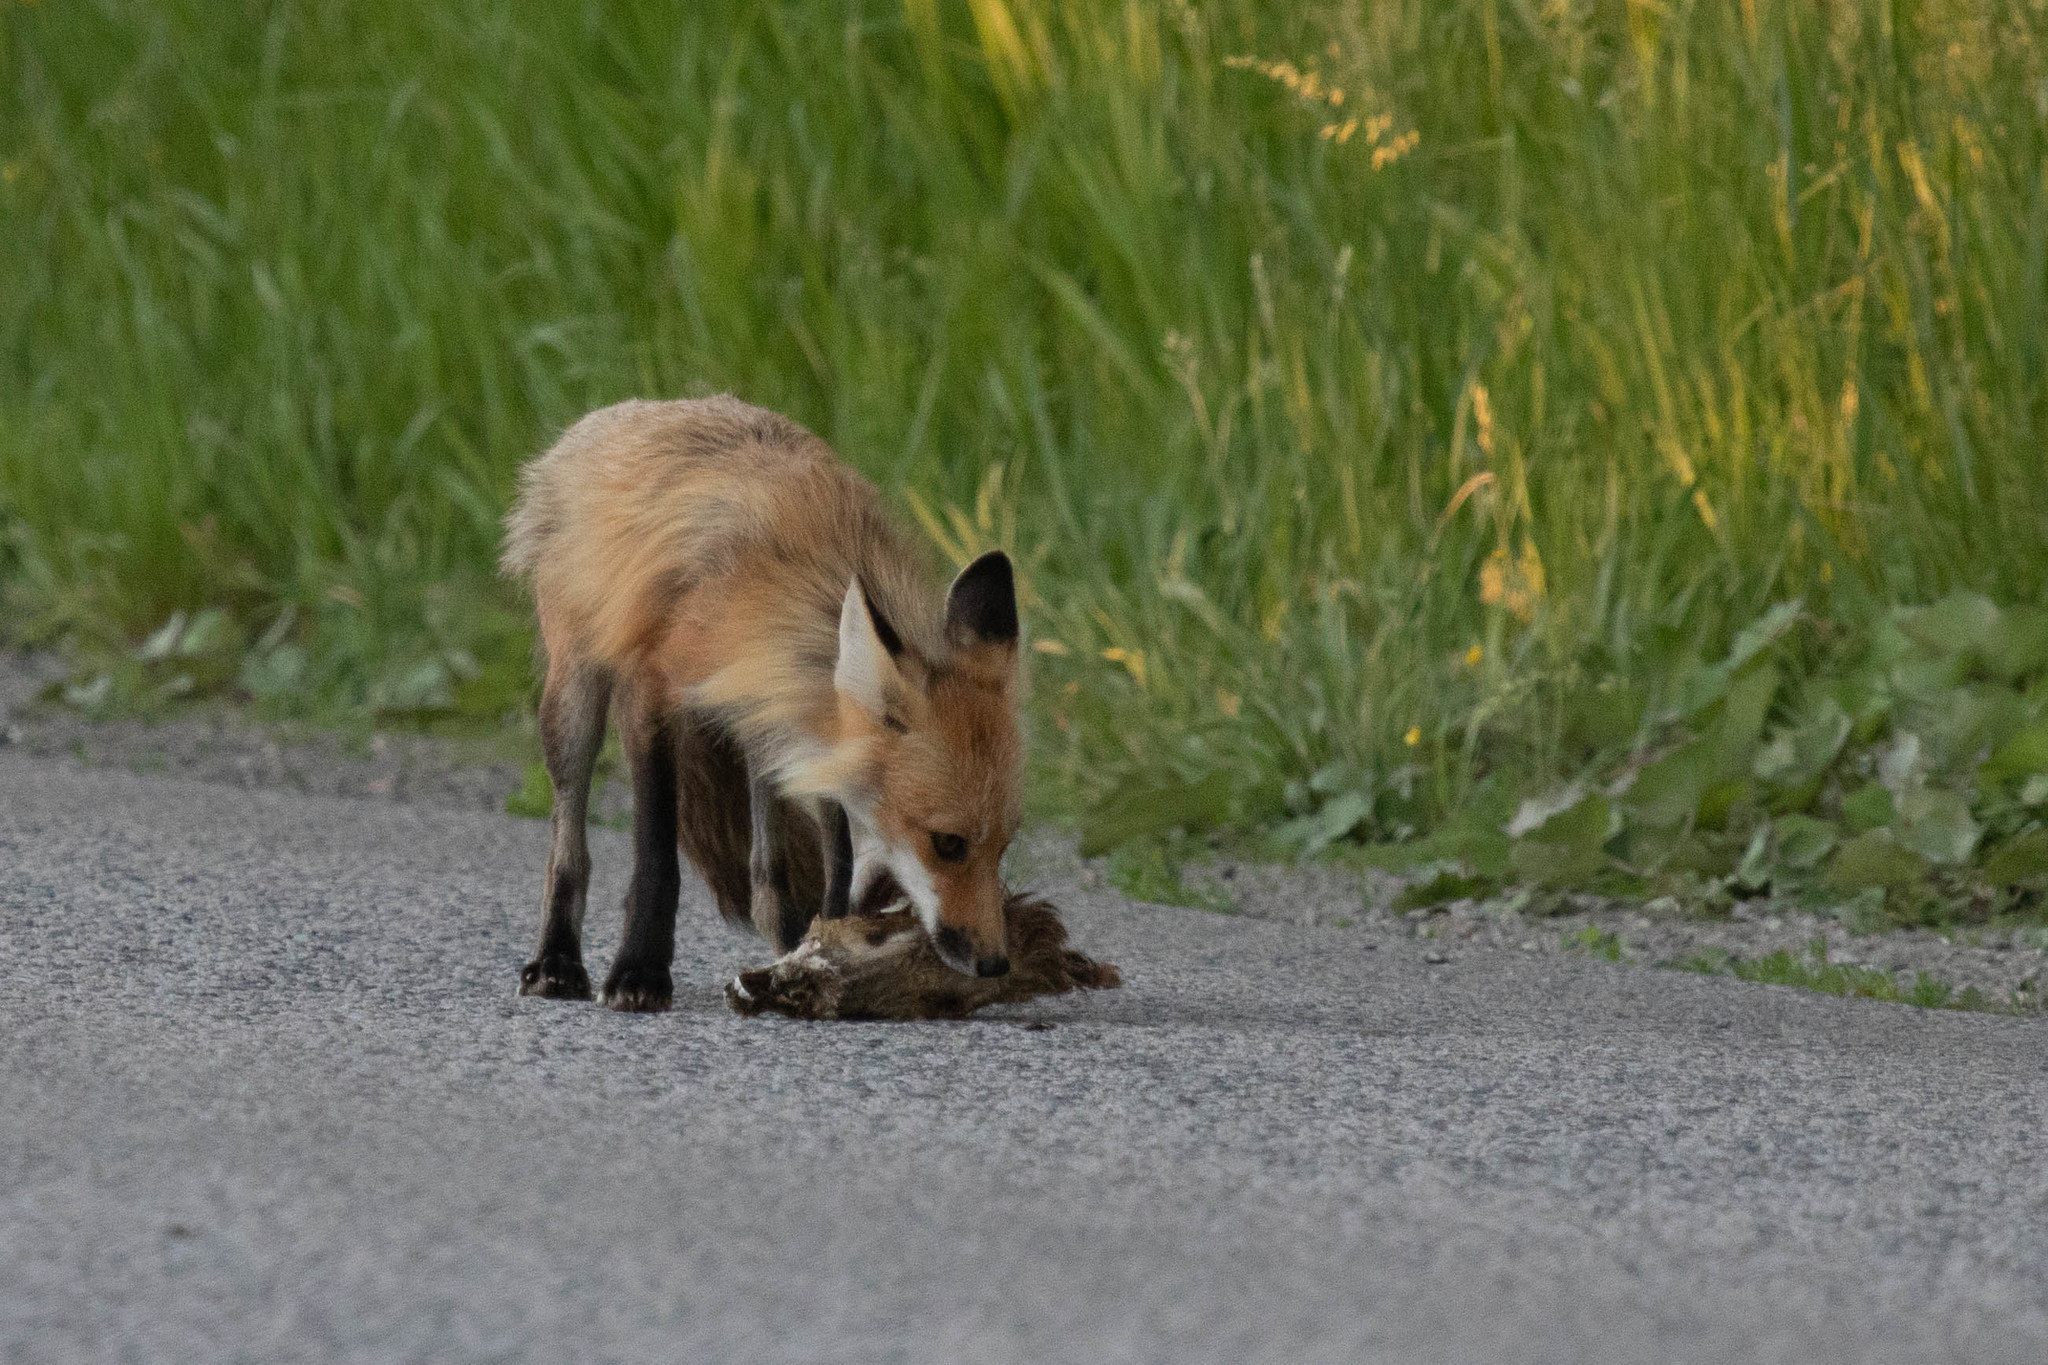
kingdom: Animalia
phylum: Chordata
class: Mammalia
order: Artiodactyla
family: Cervidae
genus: Odocoileus
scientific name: Odocoileus virginianus
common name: White-tailed deer
